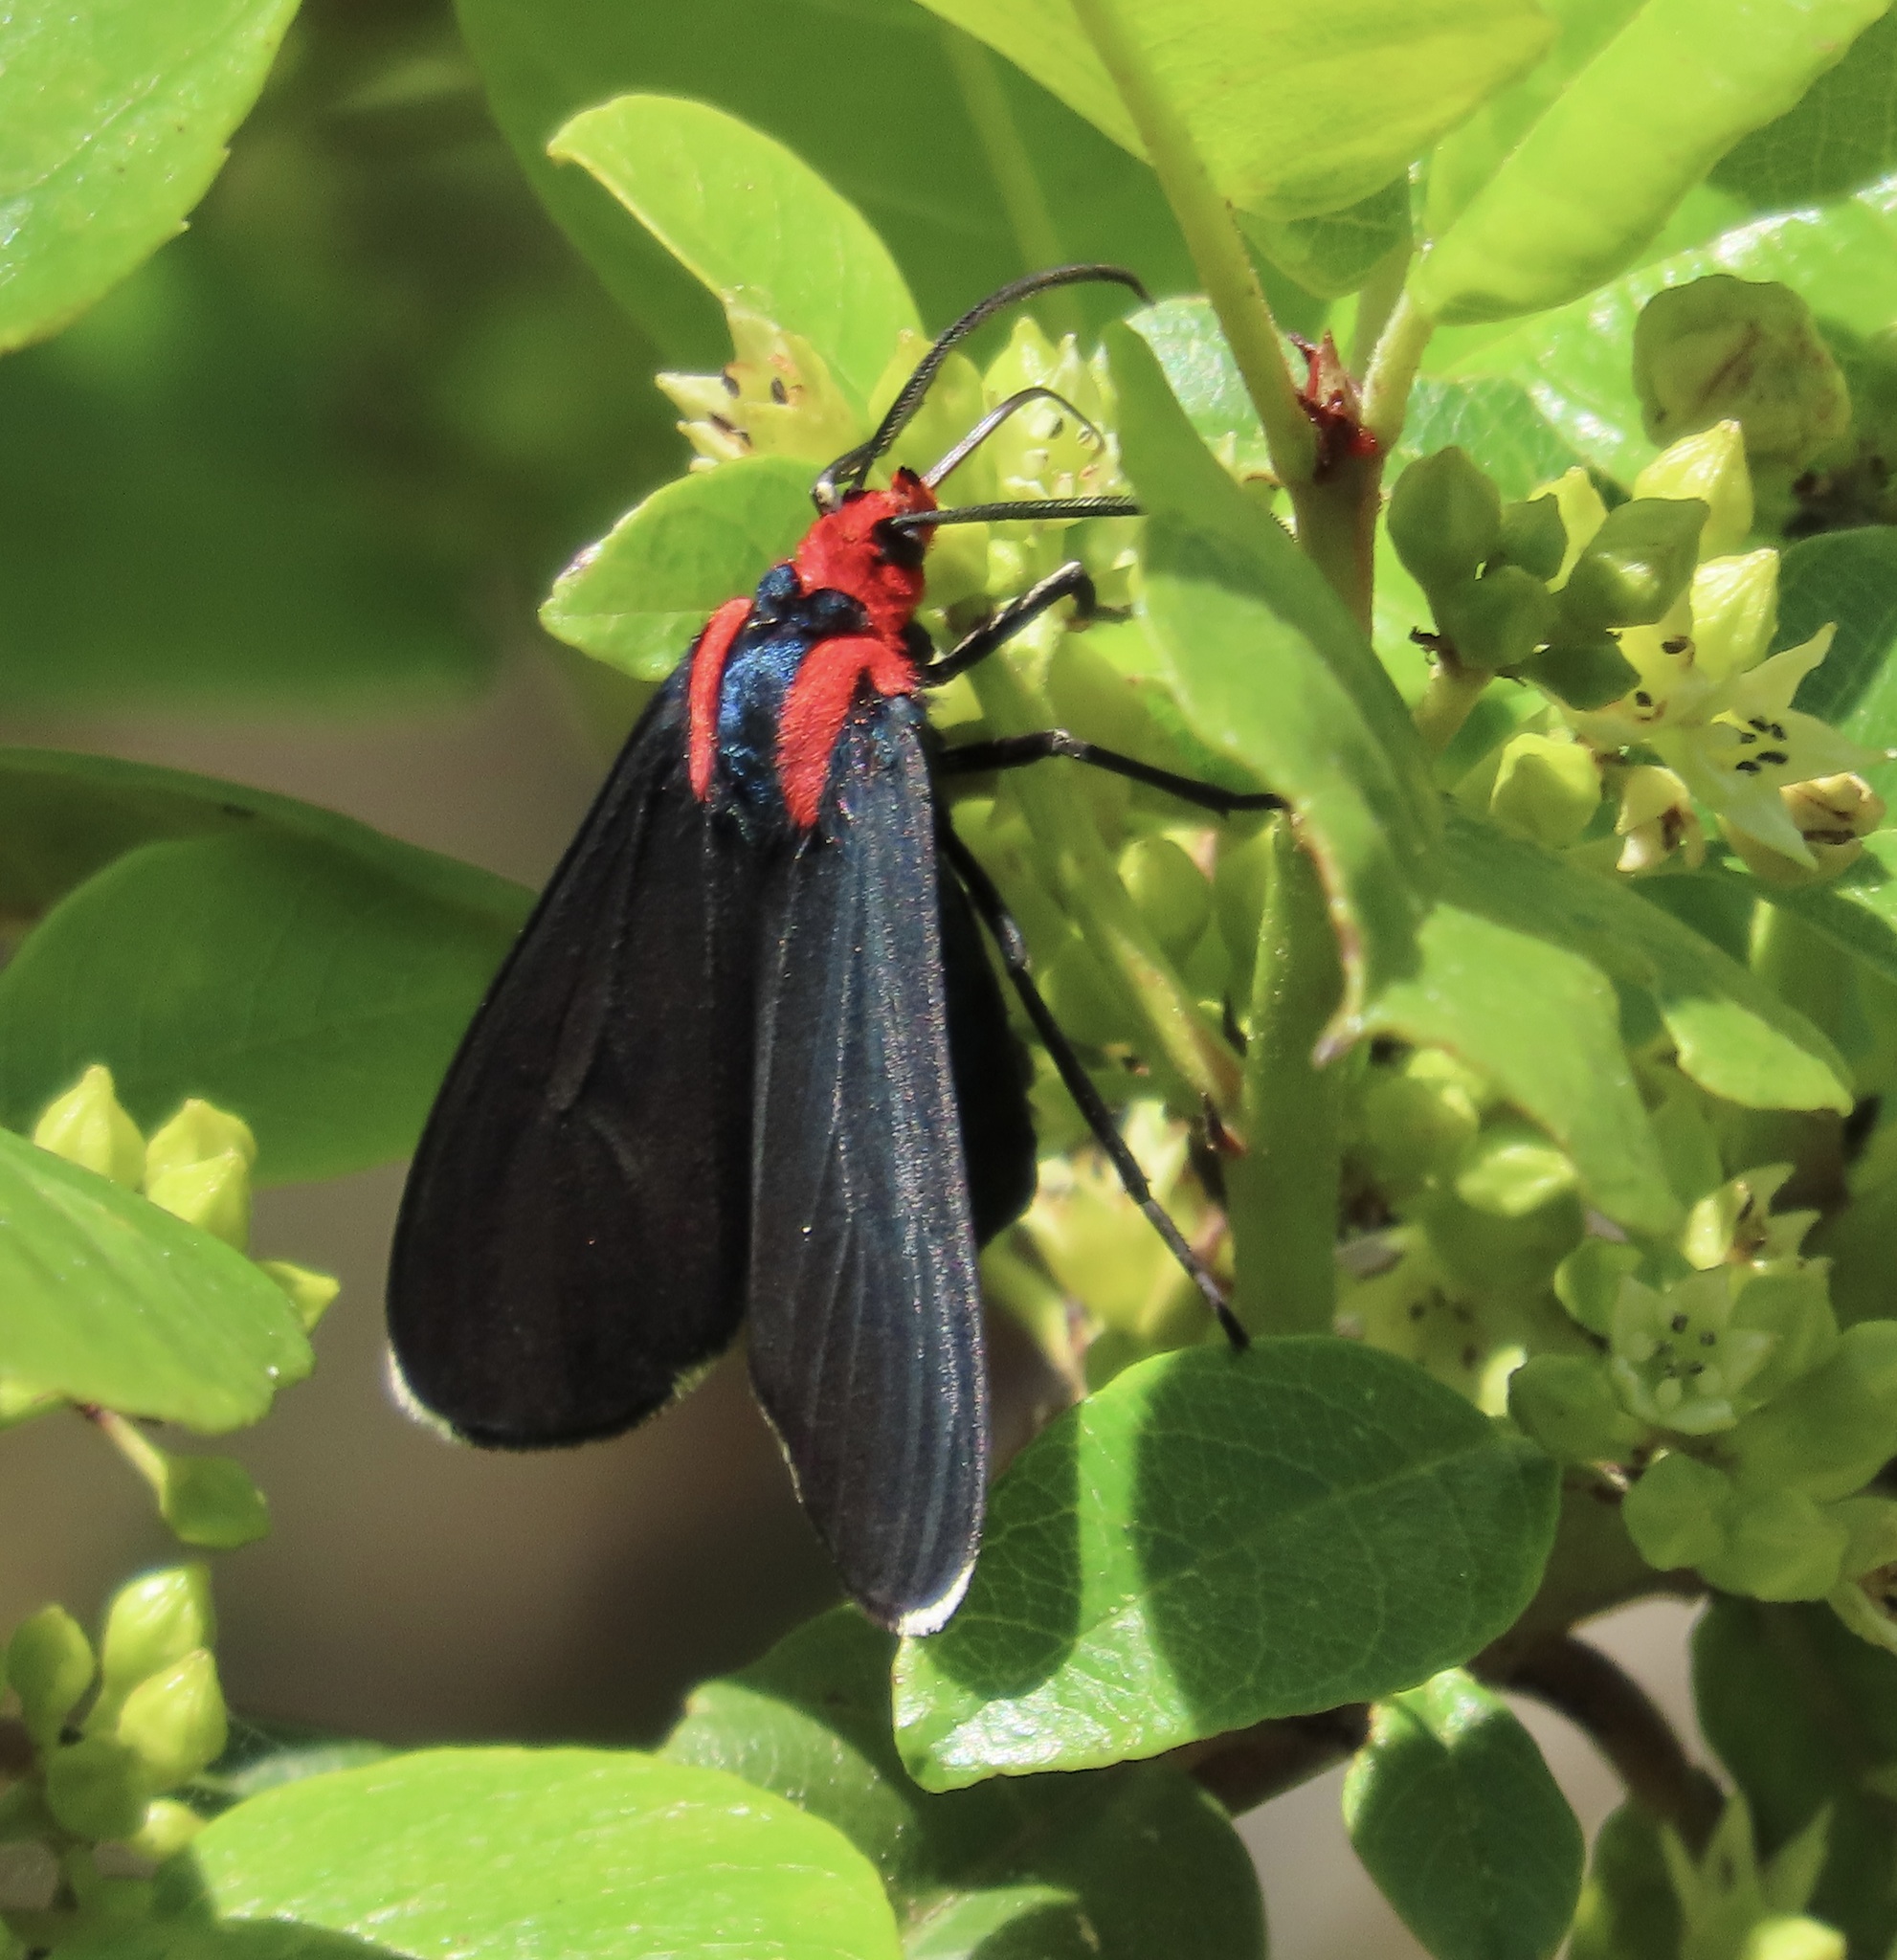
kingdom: Animalia
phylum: Arthropoda
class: Insecta
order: Lepidoptera
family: Erebidae
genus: Ctenucha
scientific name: Ctenucha rubroscapus
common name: Red-shouldered ctenucha
